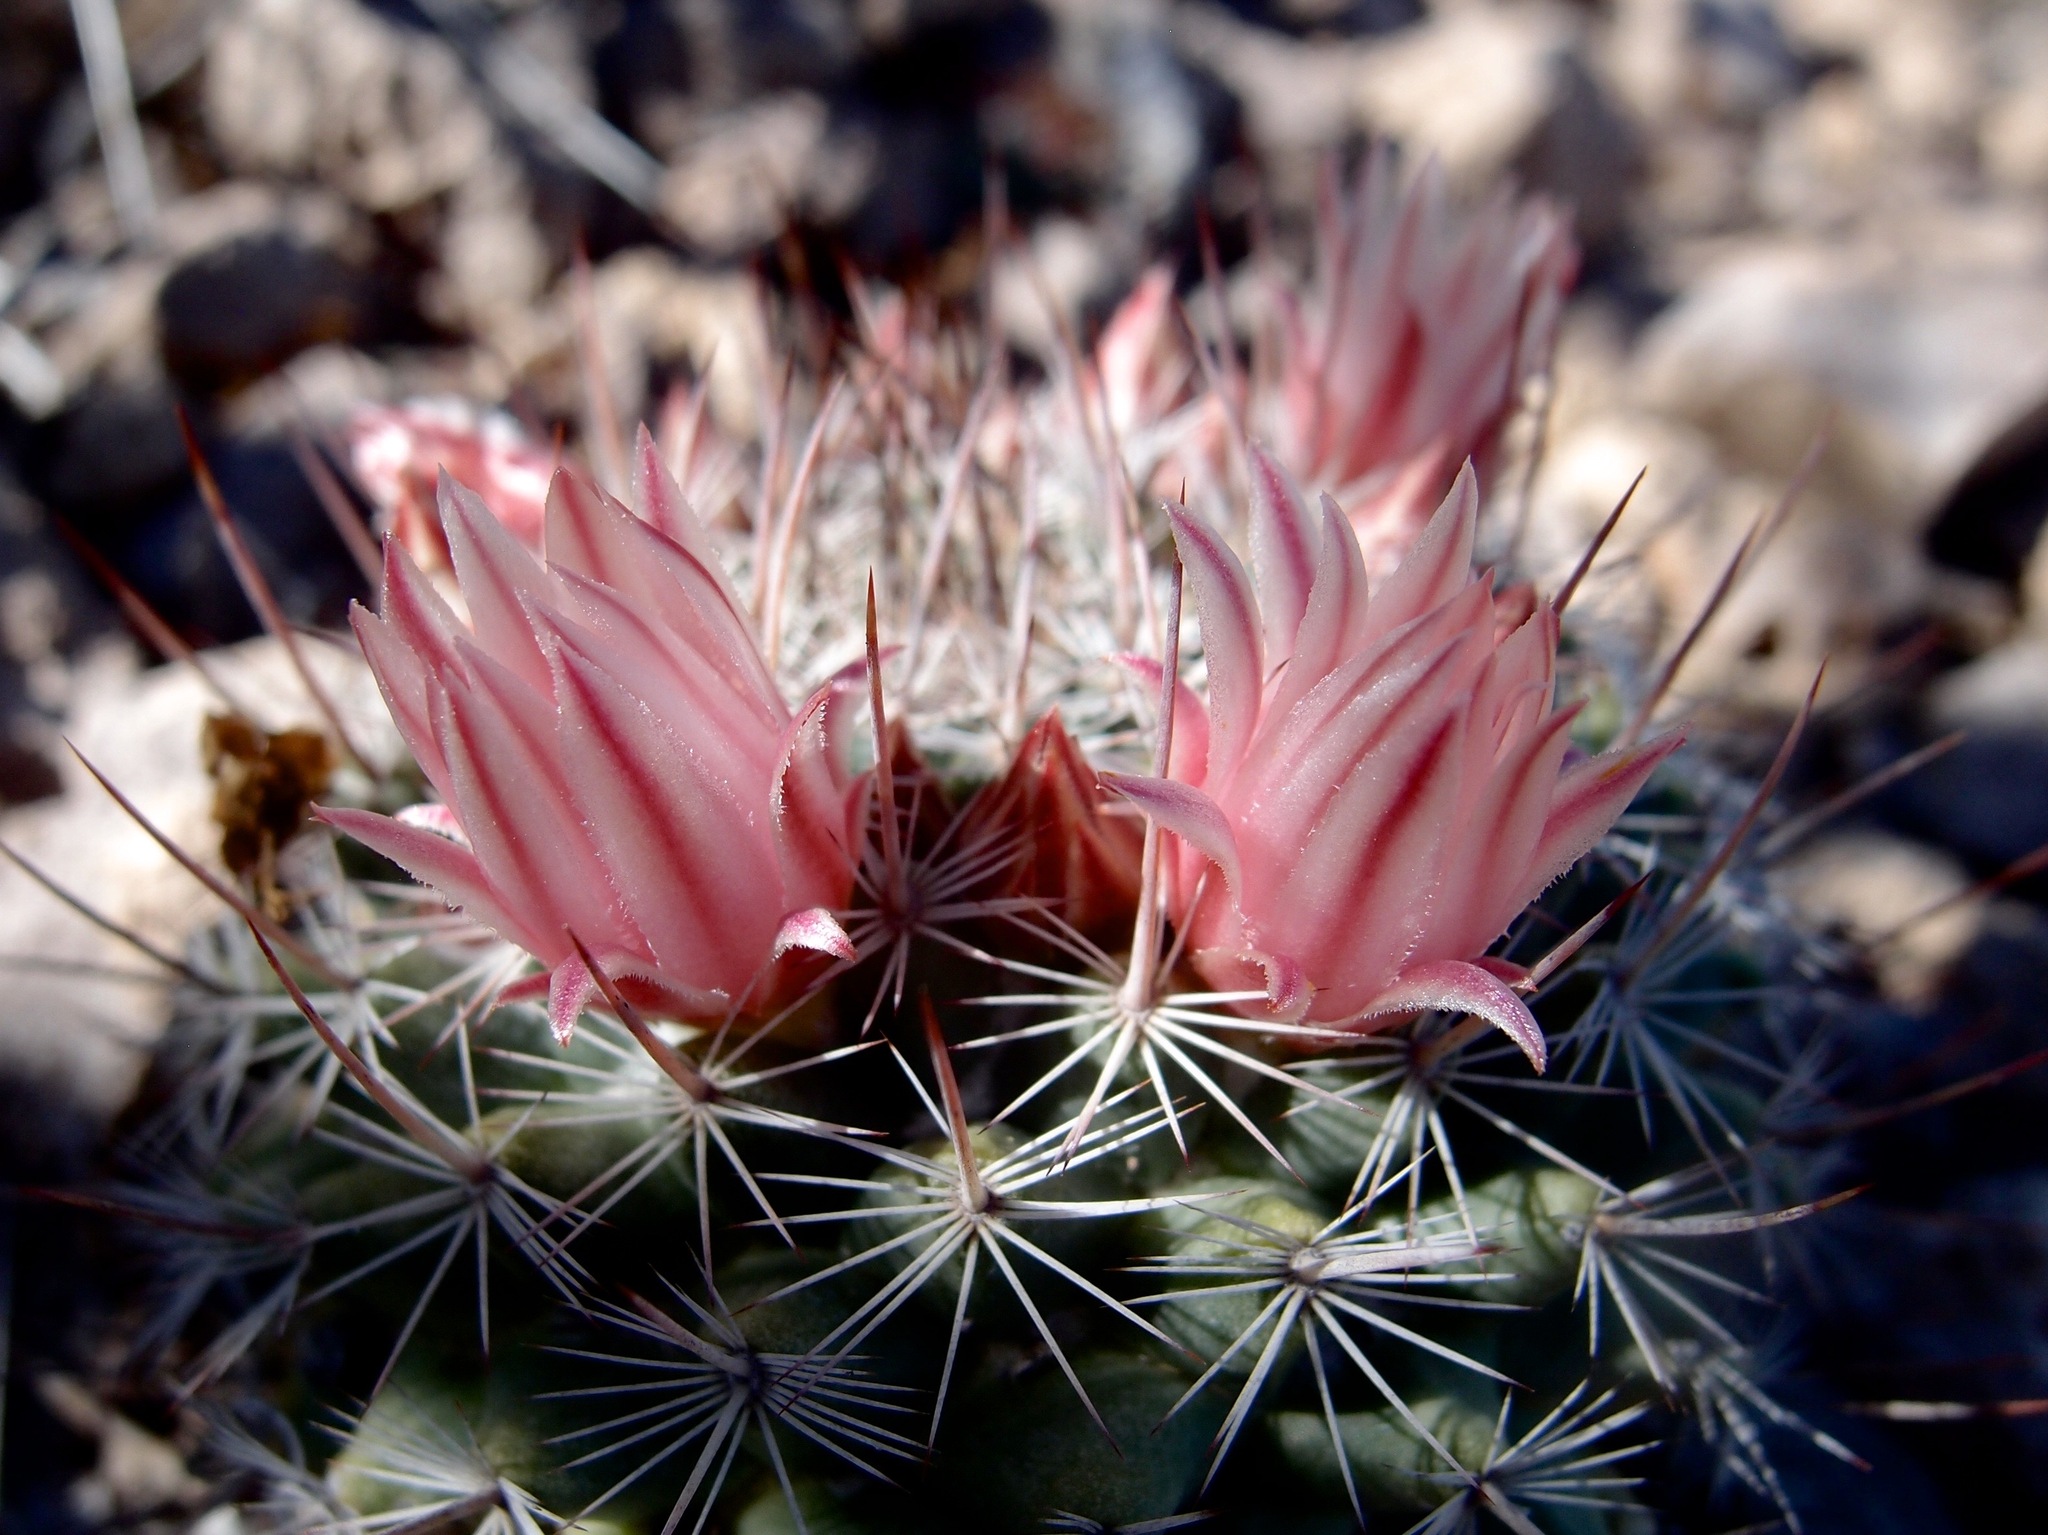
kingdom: Plantae
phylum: Tracheophyta
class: Magnoliopsida
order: Caryophyllales
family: Cactaceae
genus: Mammillaria
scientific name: Mammillaria johnstonii
